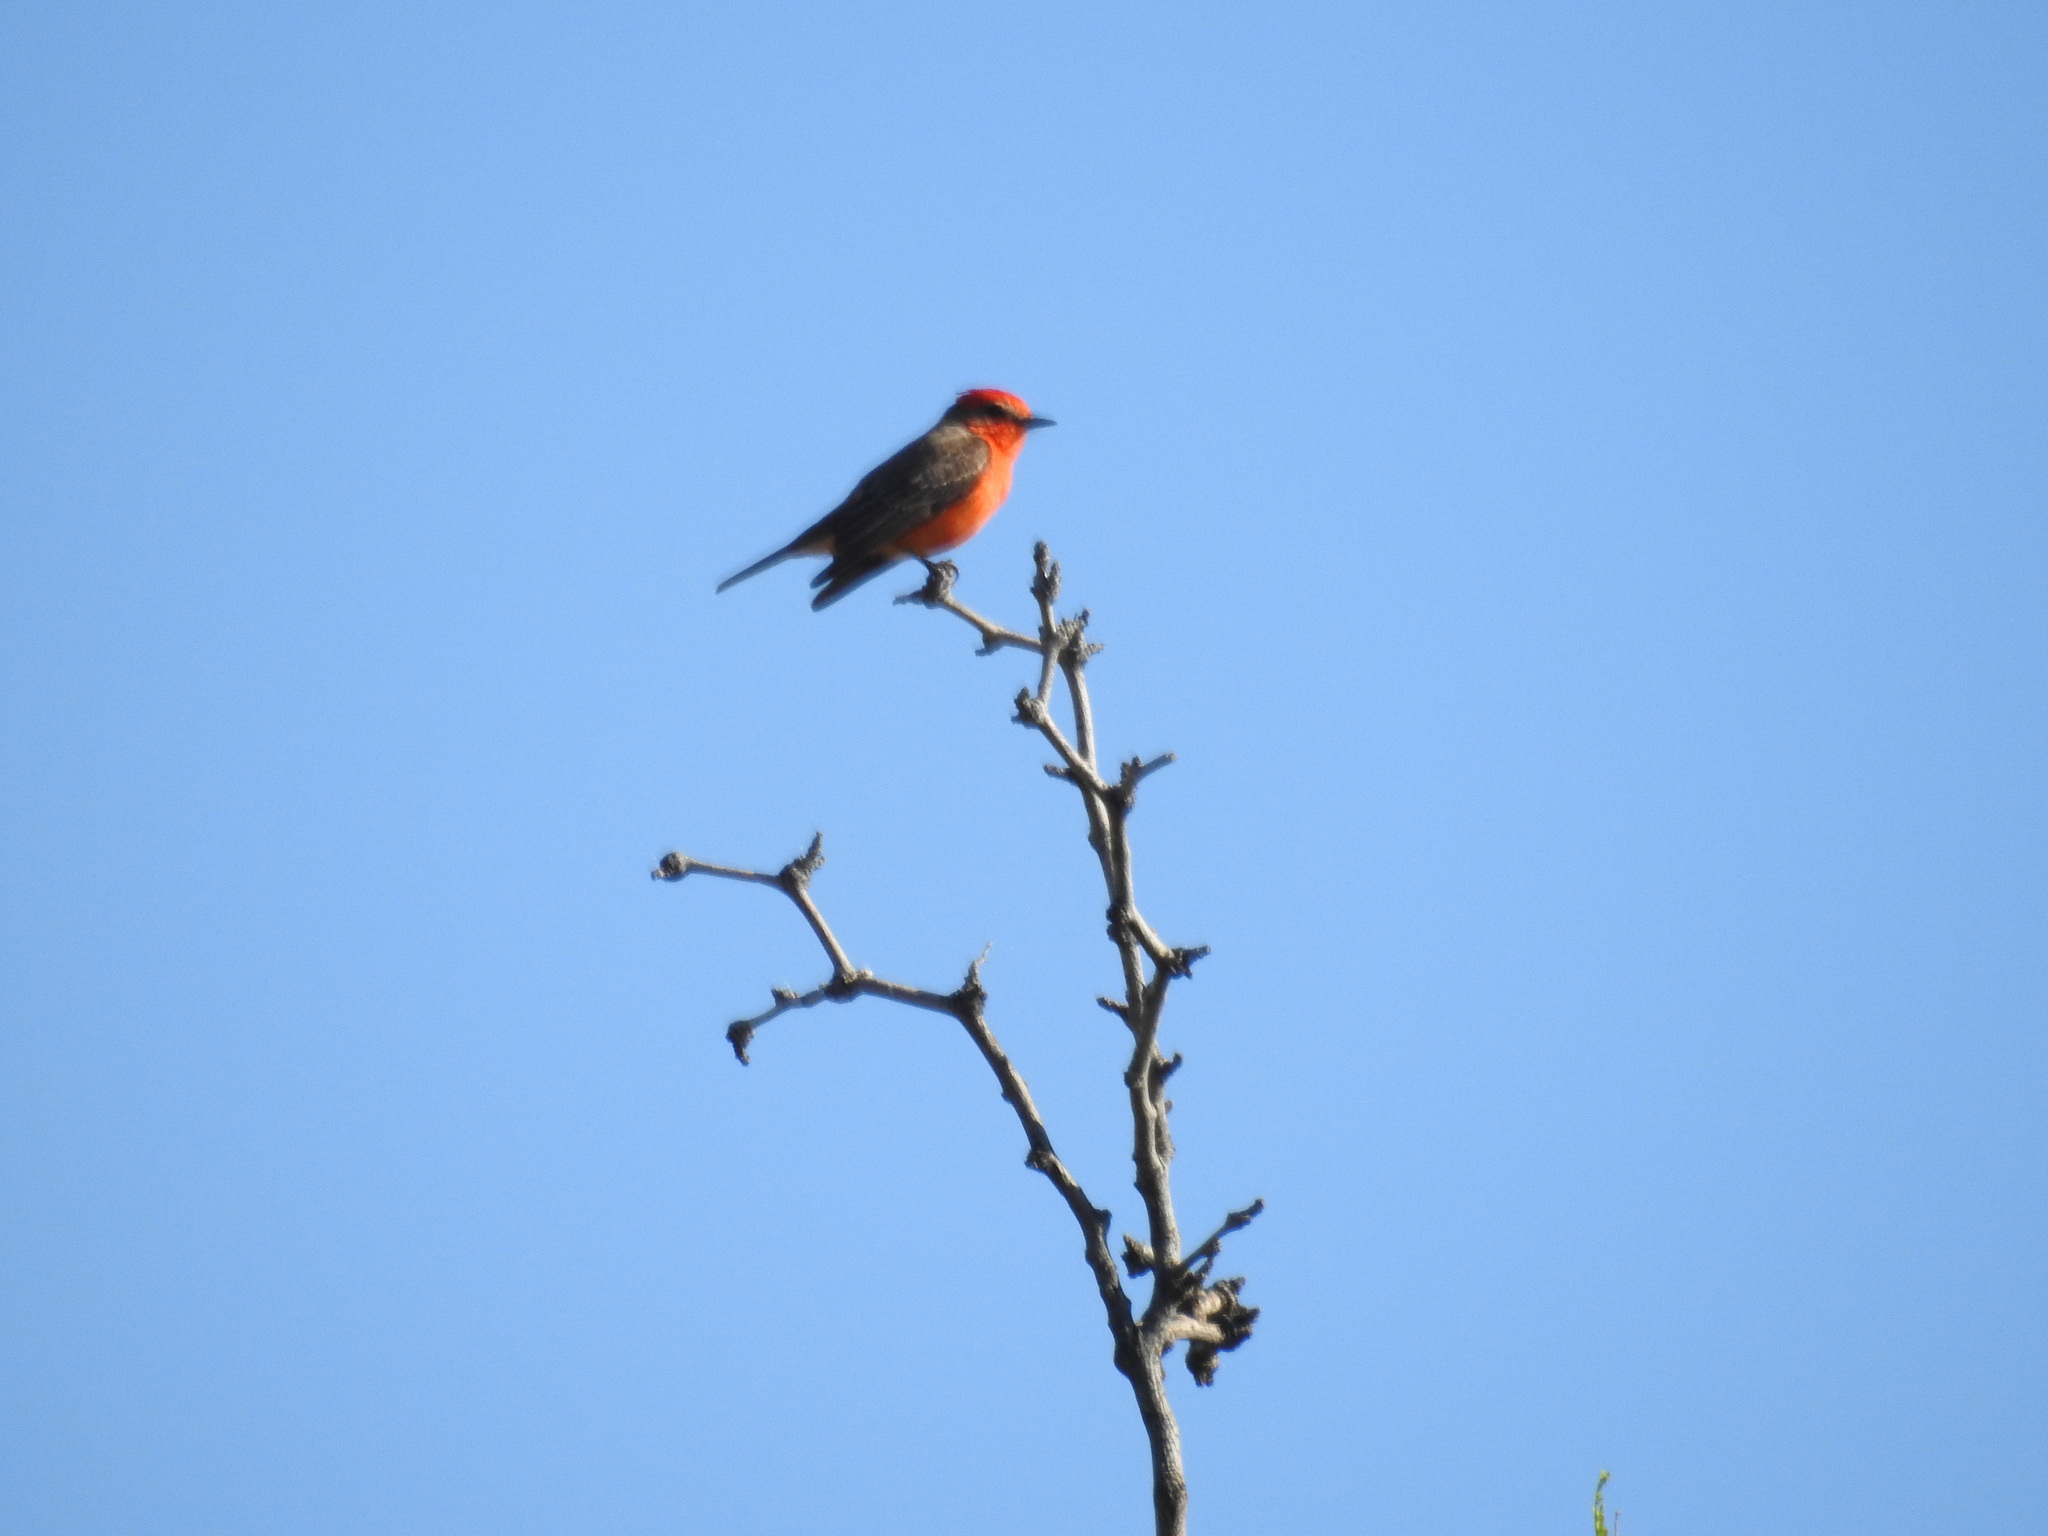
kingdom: Animalia
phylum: Chordata
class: Aves
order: Passeriformes
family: Tyrannidae
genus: Pyrocephalus
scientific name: Pyrocephalus rubinus
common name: Vermilion flycatcher
